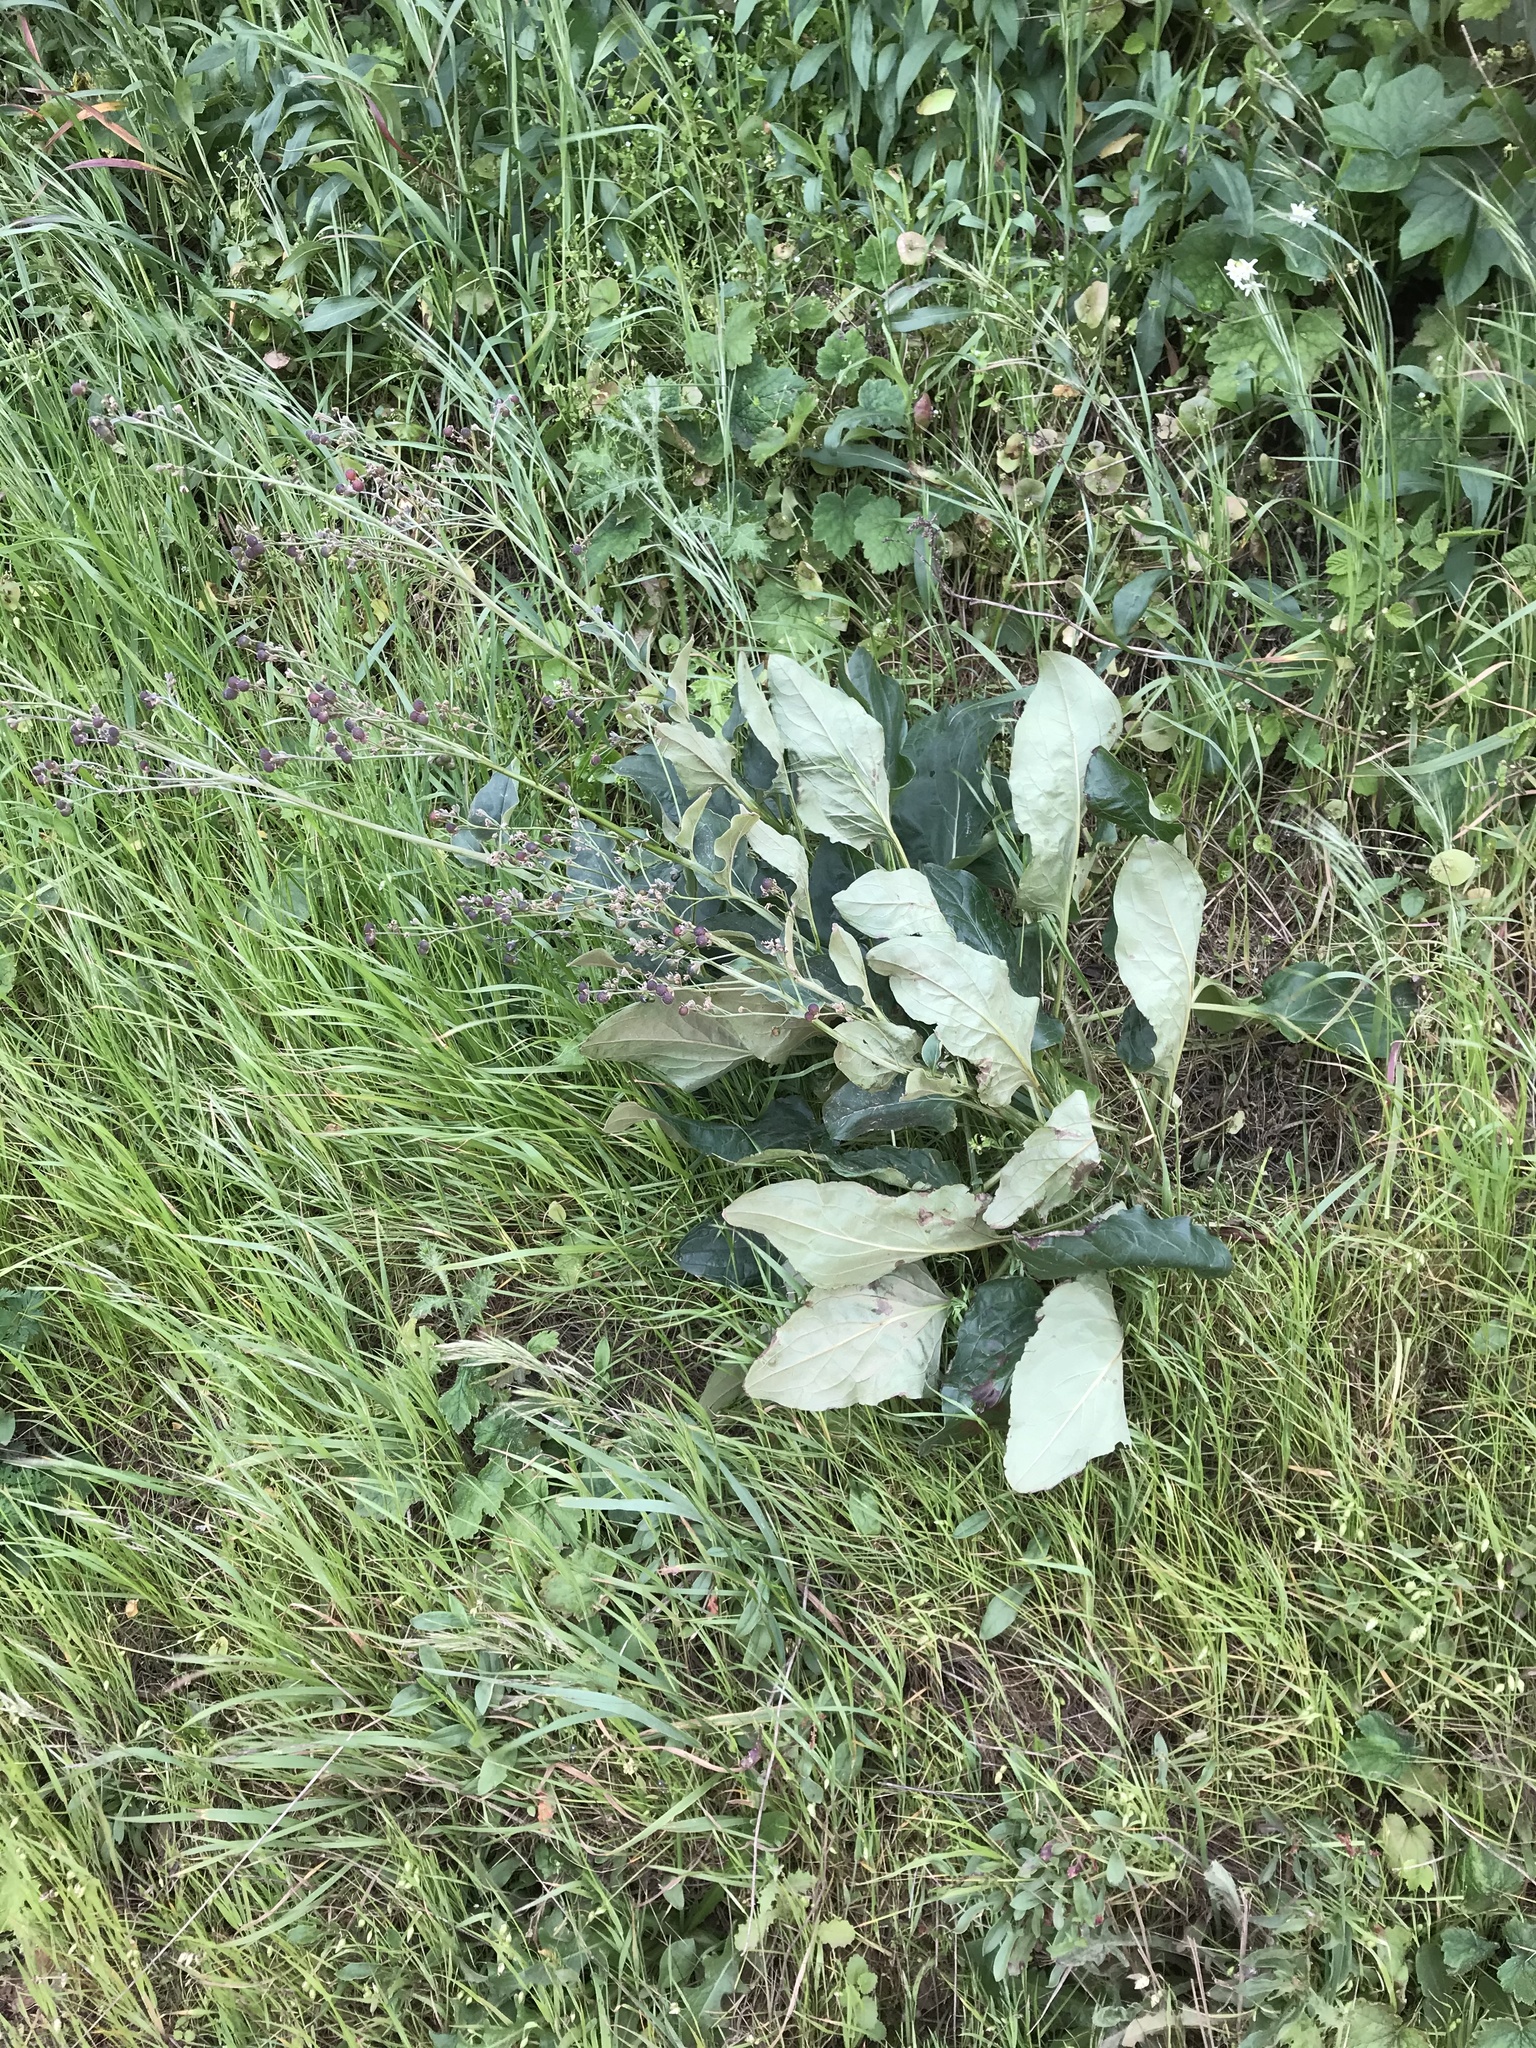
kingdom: Plantae
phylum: Tracheophyta
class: Magnoliopsida
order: Boraginales
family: Boraginaceae
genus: Adelinia
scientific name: Adelinia grande
